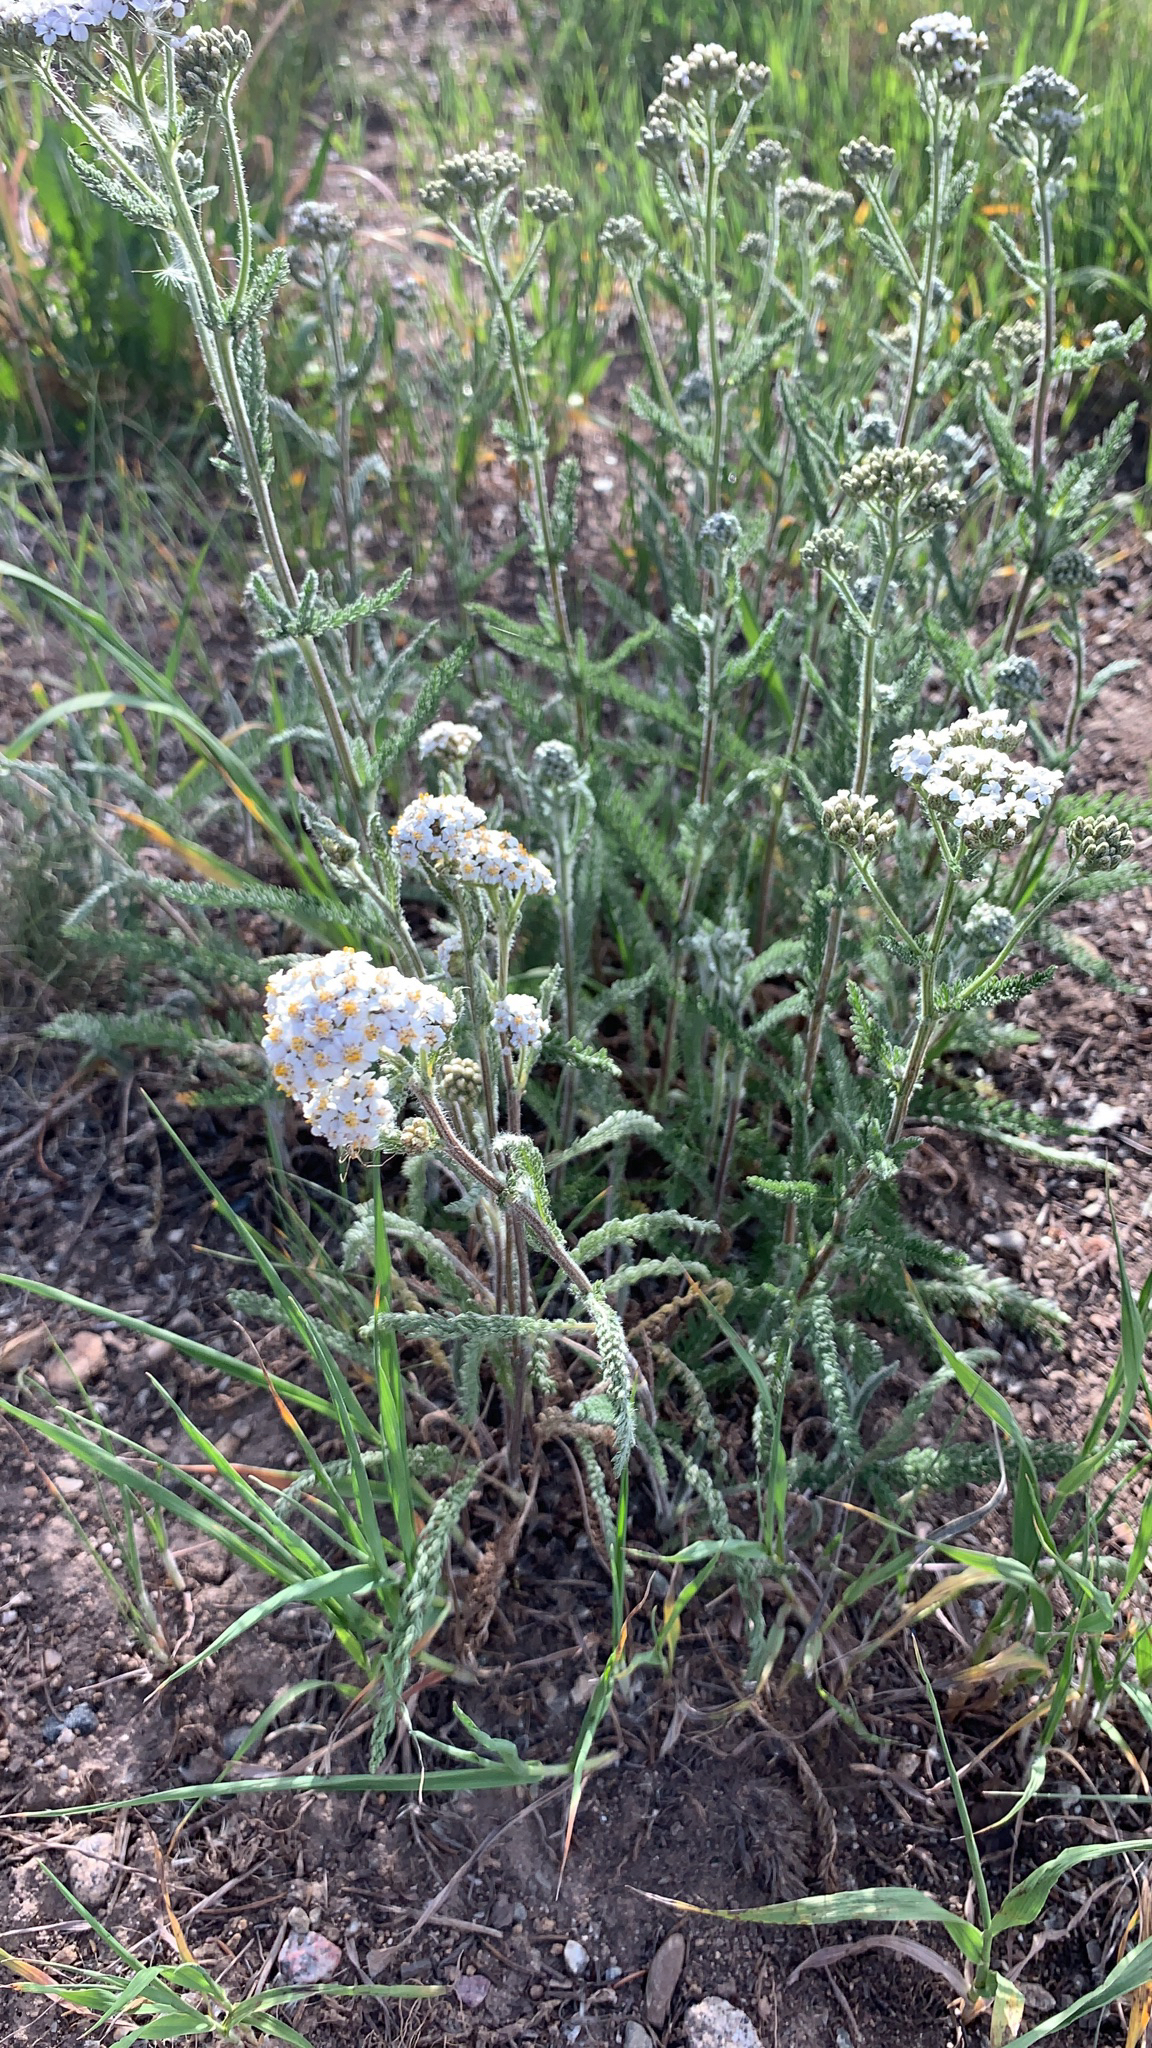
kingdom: Plantae
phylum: Tracheophyta
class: Magnoliopsida
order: Asterales
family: Asteraceae
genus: Achillea
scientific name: Achillea millefolium
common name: Yarrow
